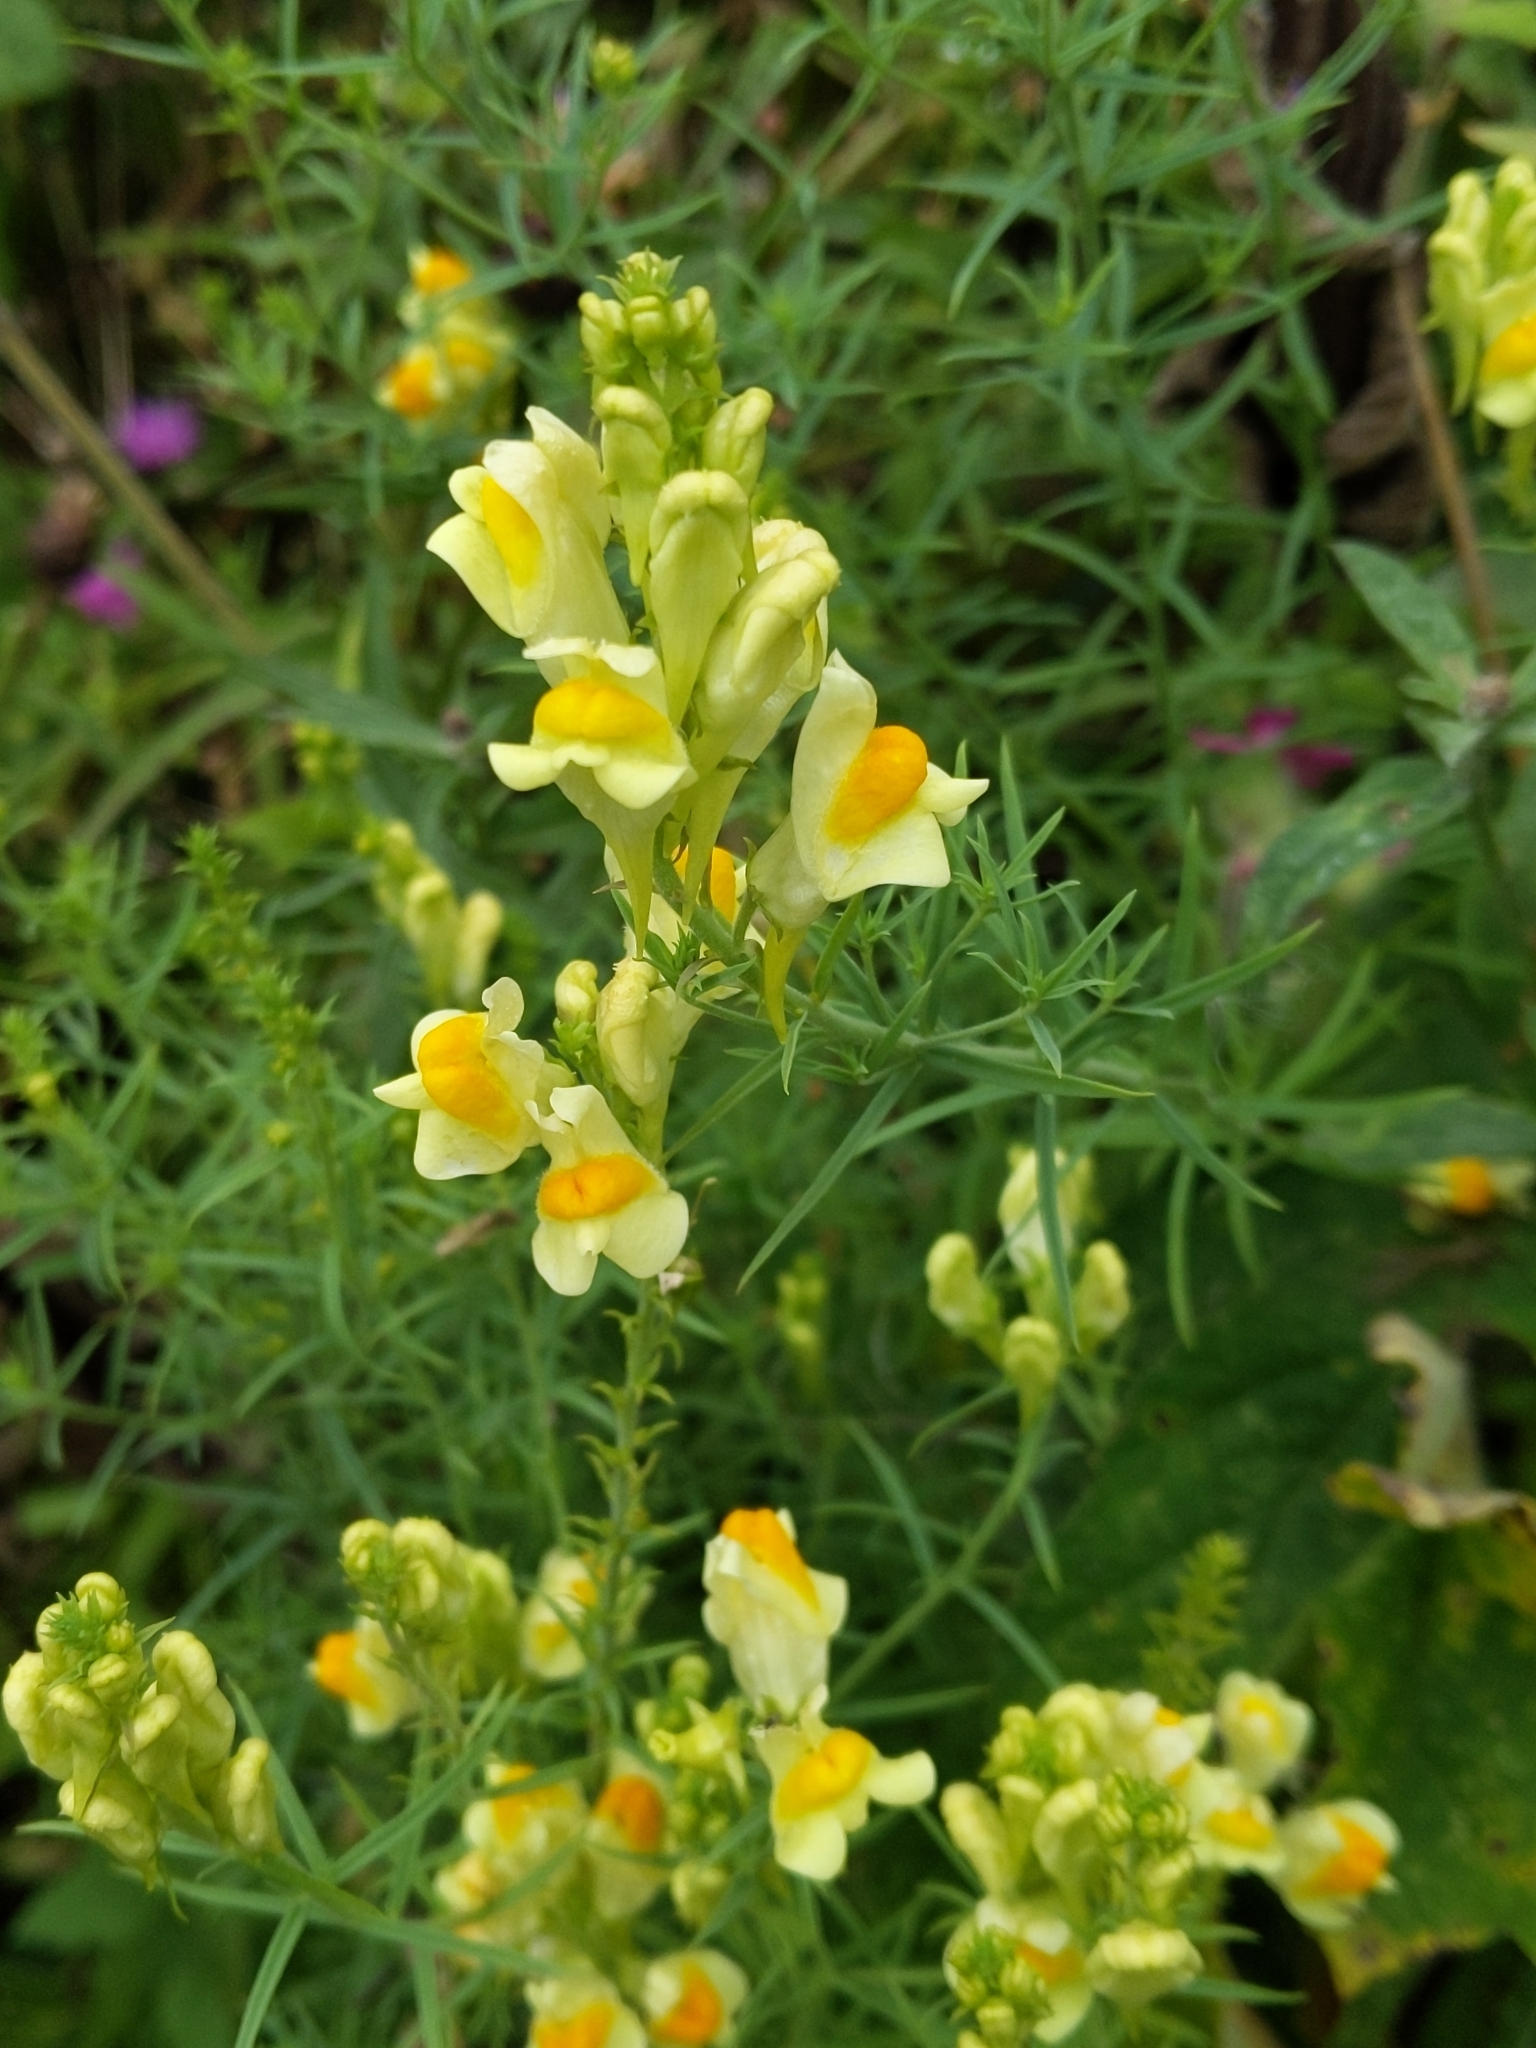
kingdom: Plantae
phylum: Tracheophyta
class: Magnoliopsida
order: Lamiales
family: Plantaginaceae
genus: Linaria
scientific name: Linaria vulgaris
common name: Butter and eggs
